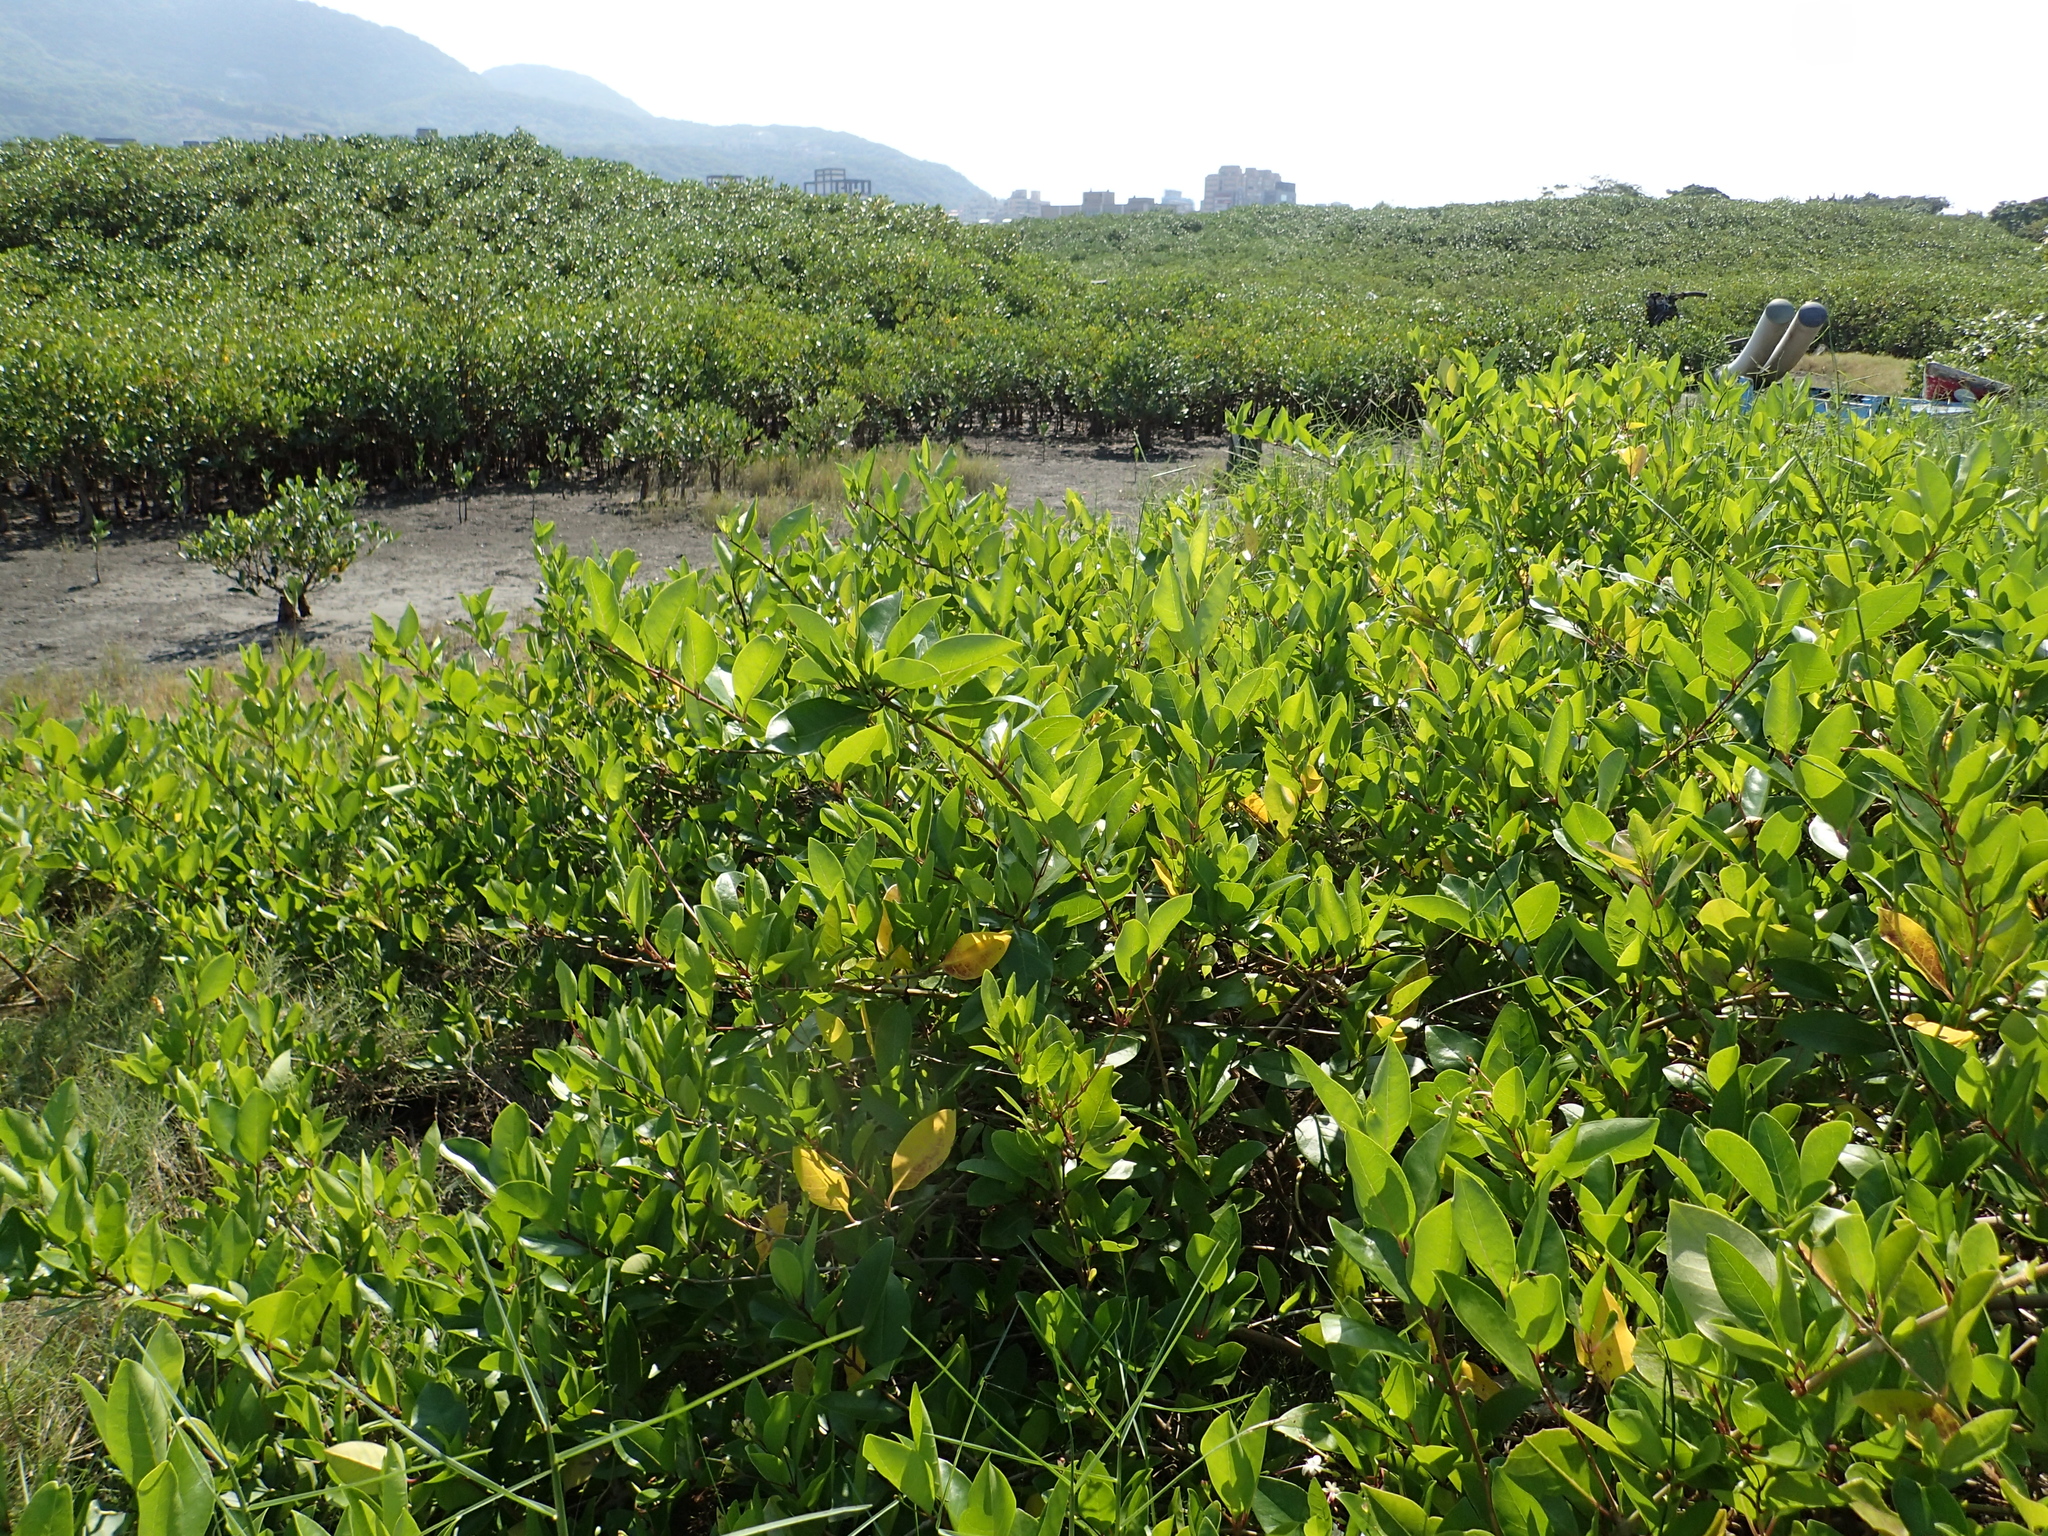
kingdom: Plantae
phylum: Tracheophyta
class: Magnoliopsida
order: Lamiales
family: Lamiaceae
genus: Volkameria
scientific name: Volkameria inermis
